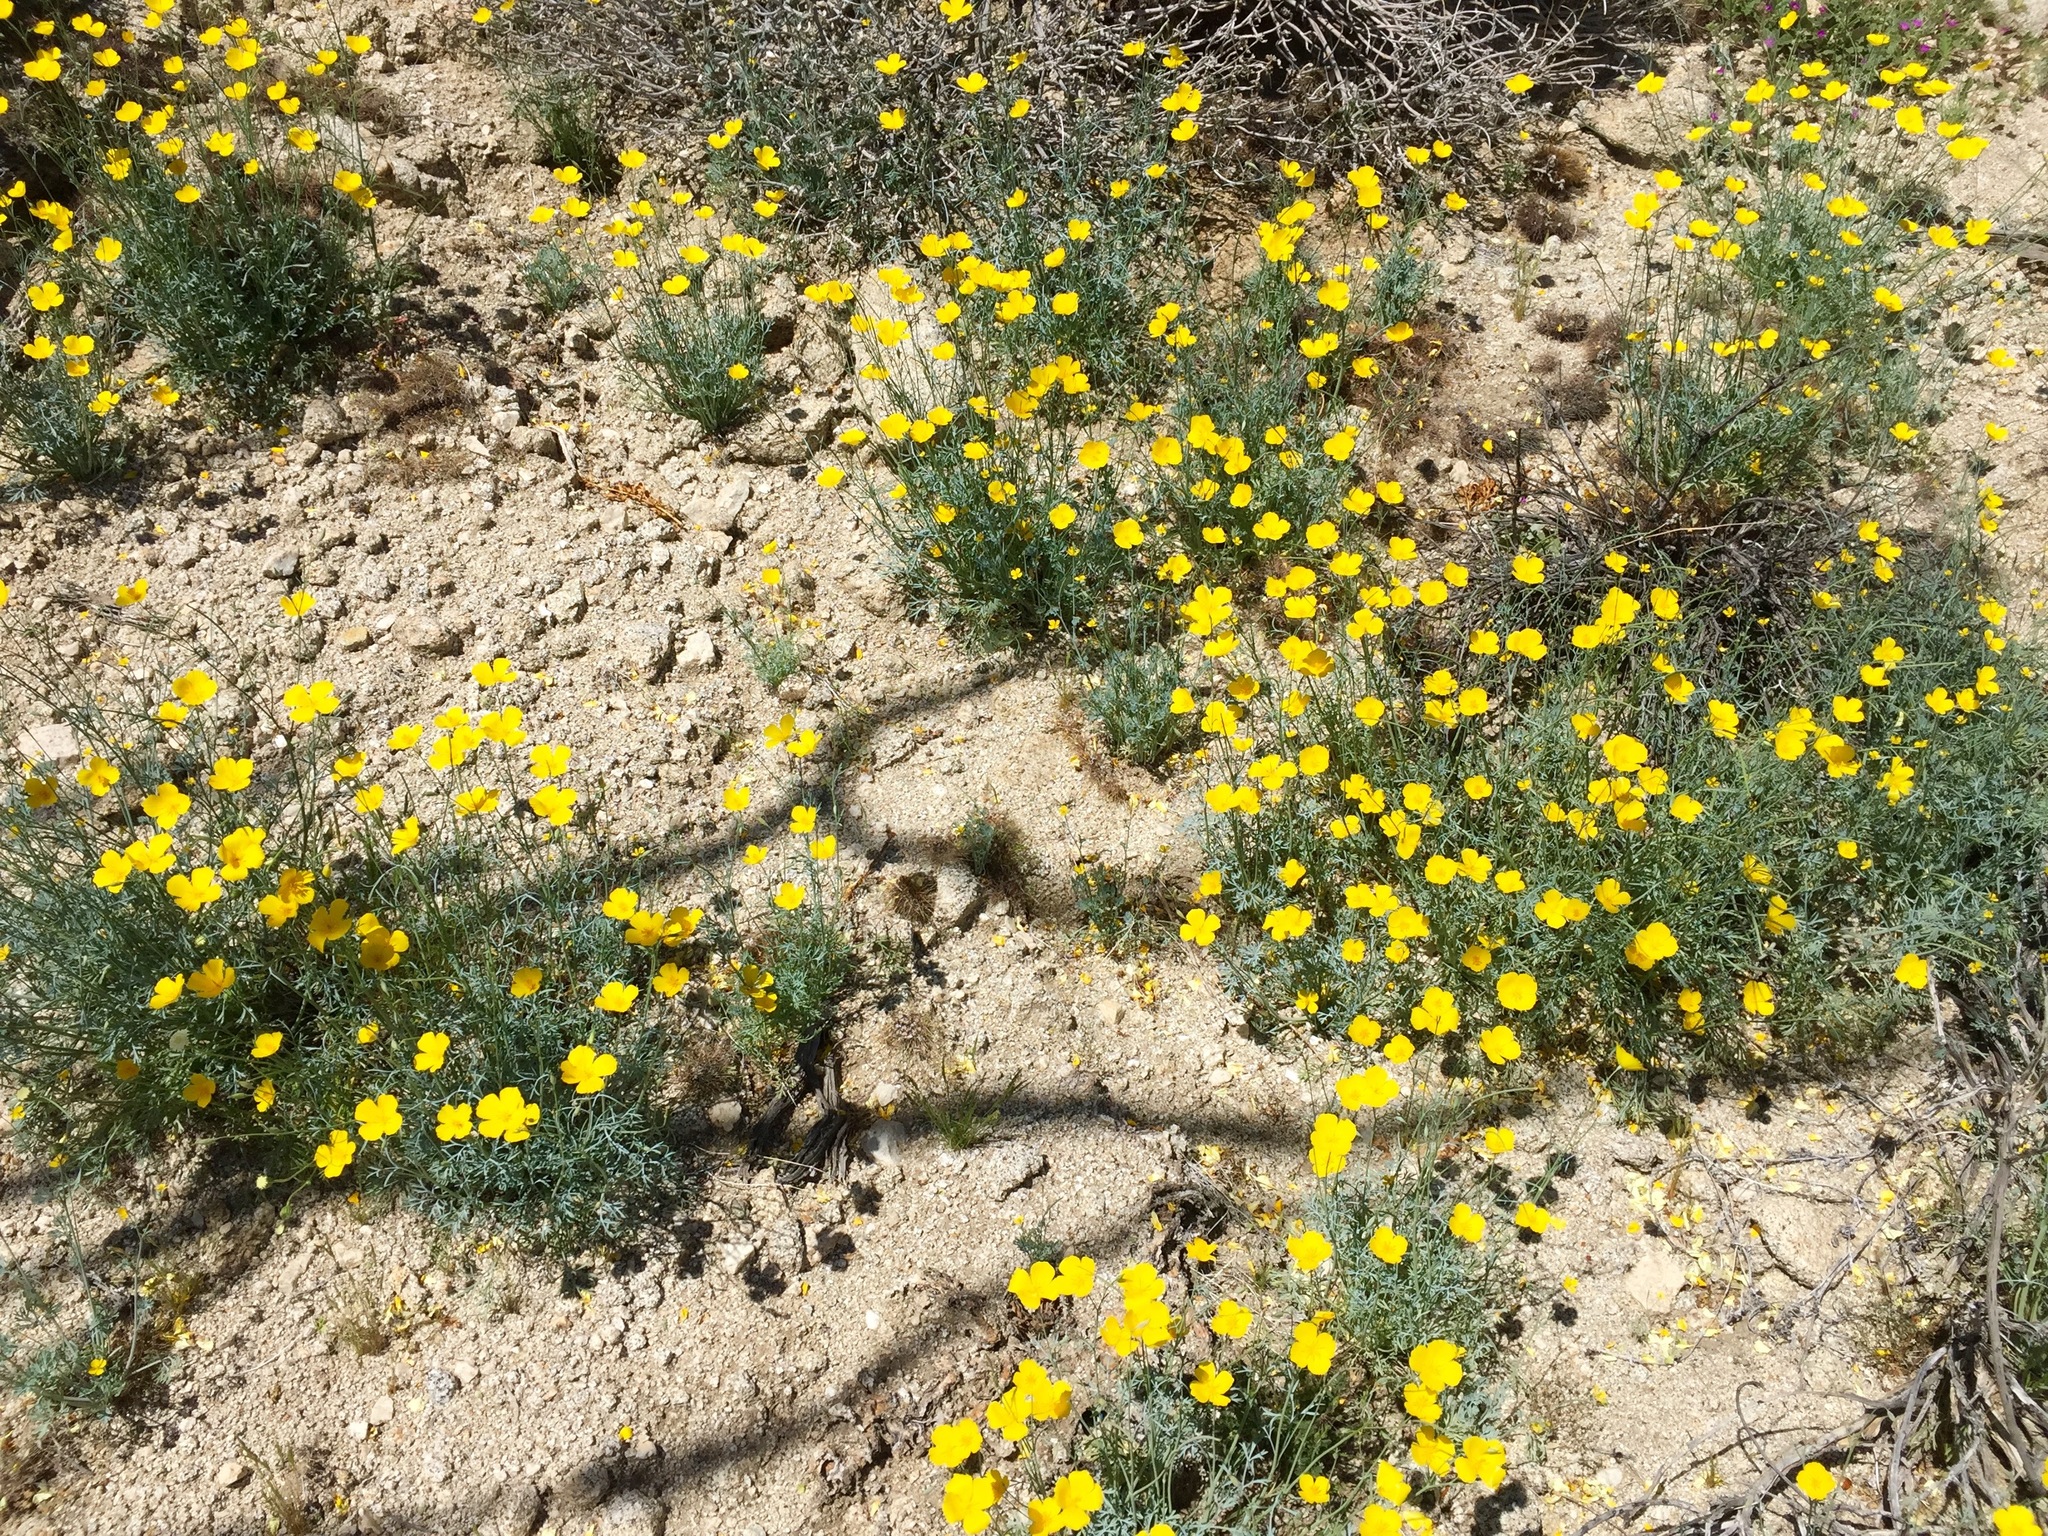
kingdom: Plantae
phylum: Tracheophyta
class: Magnoliopsida
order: Ranunculales
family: Papaveraceae
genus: Eschscholzia
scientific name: Eschscholzia parishii
